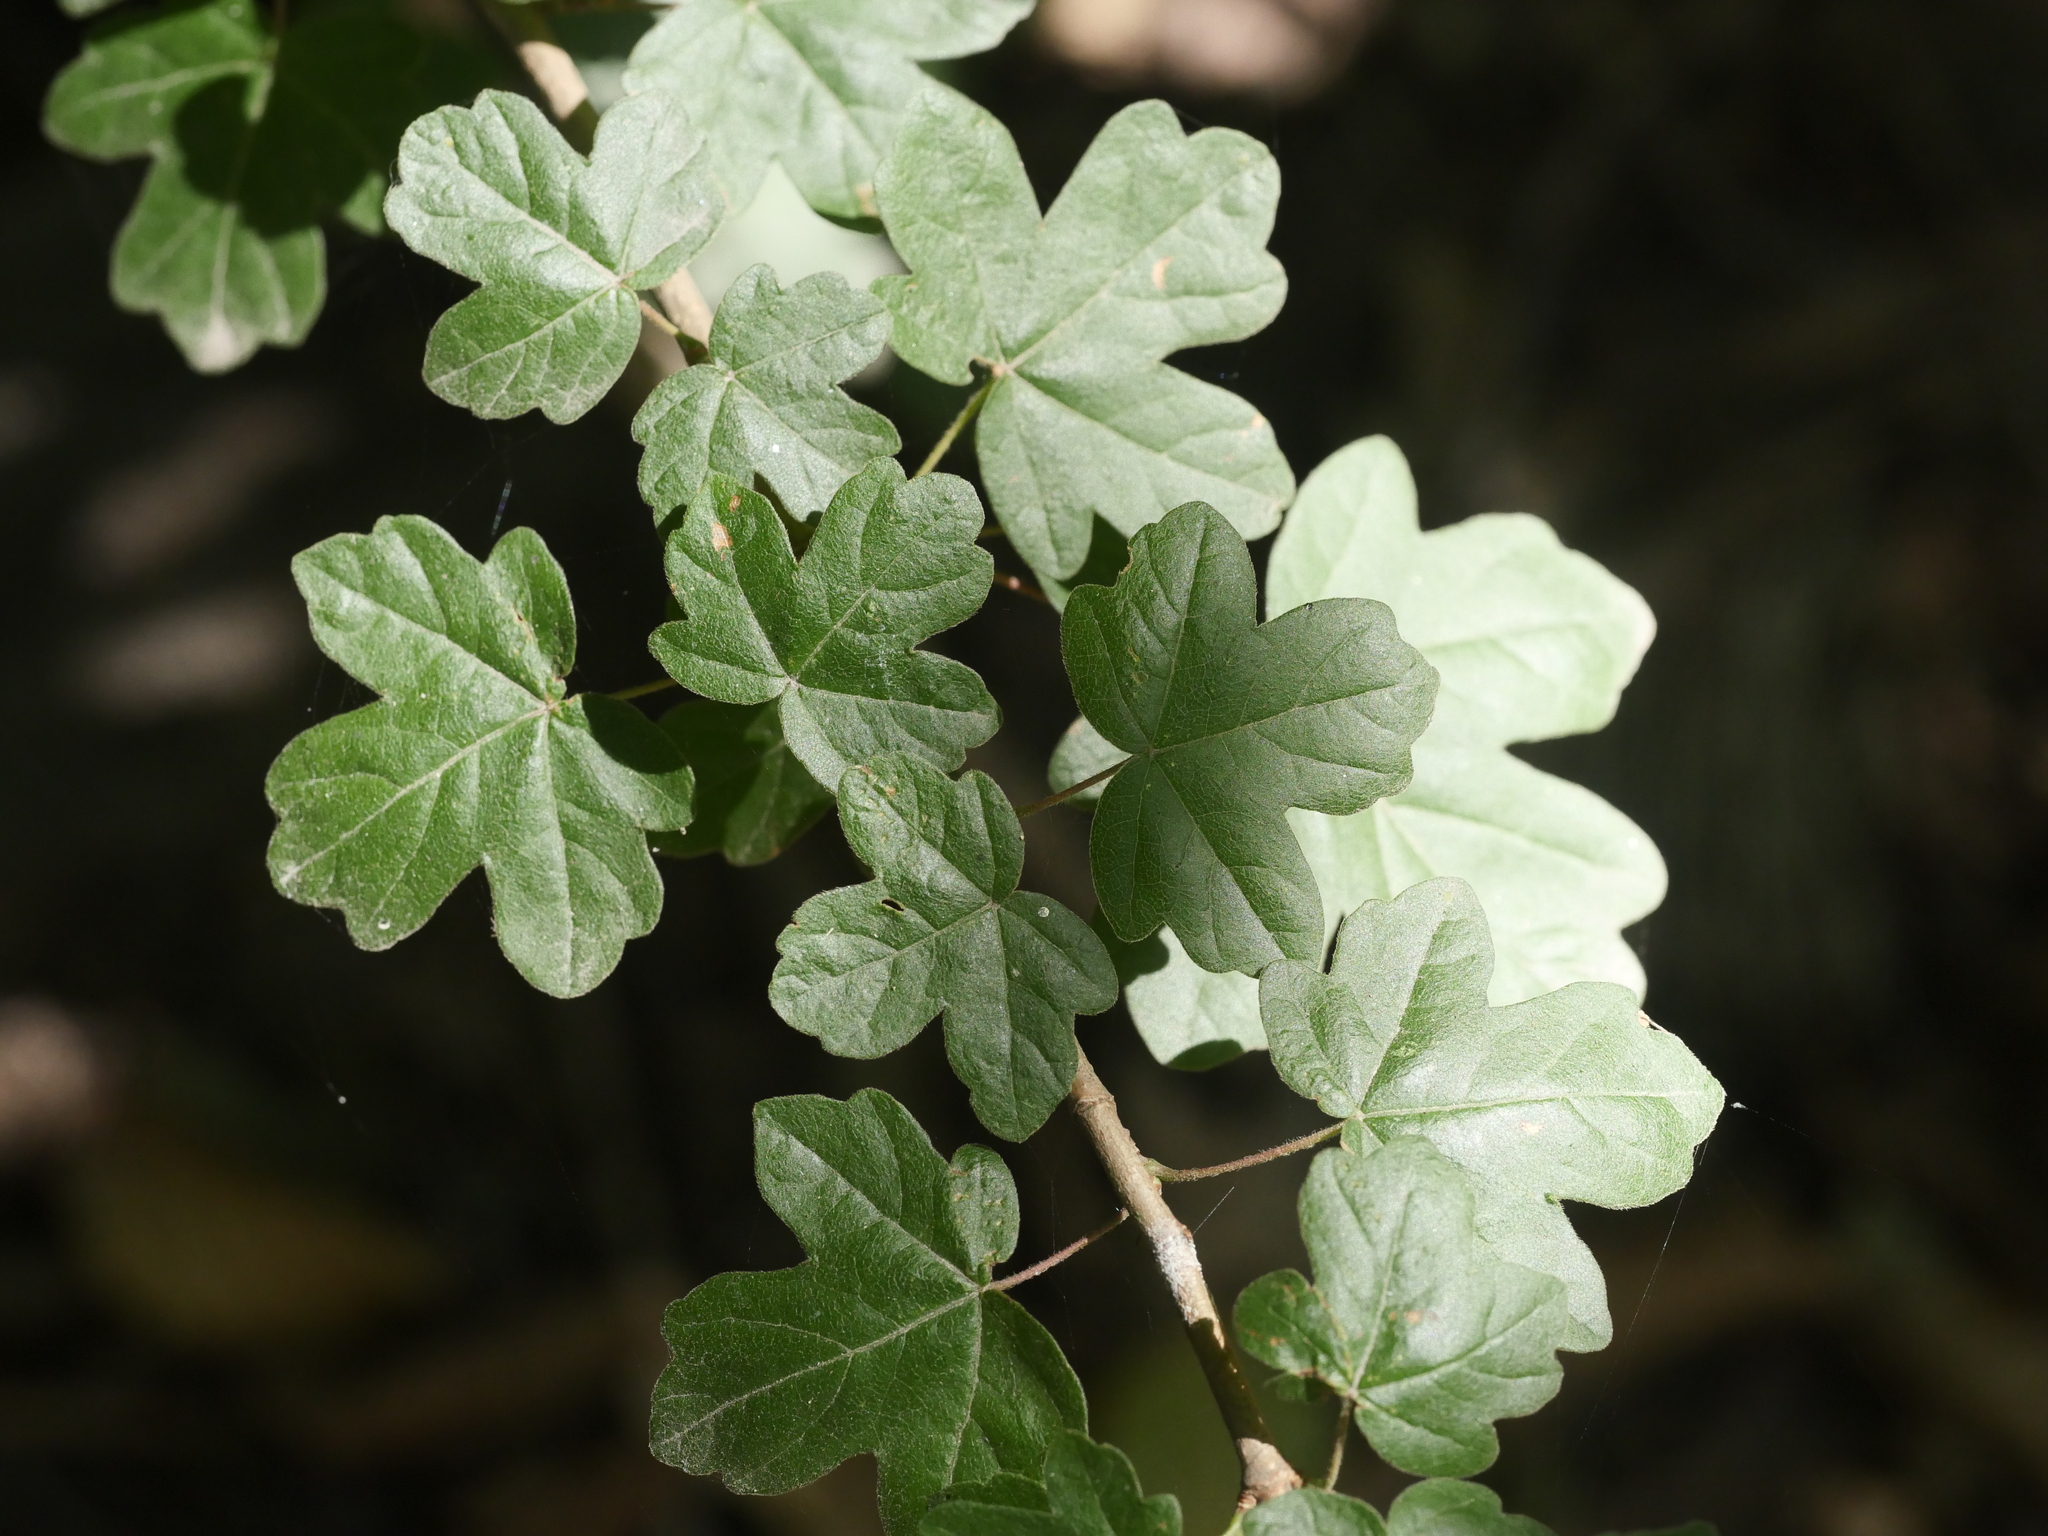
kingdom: Plantae
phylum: Tracheophyta
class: Magnoliopsida
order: Sapindales
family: Sapindaceae
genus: Acer
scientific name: Acer campestre
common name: Field maple
